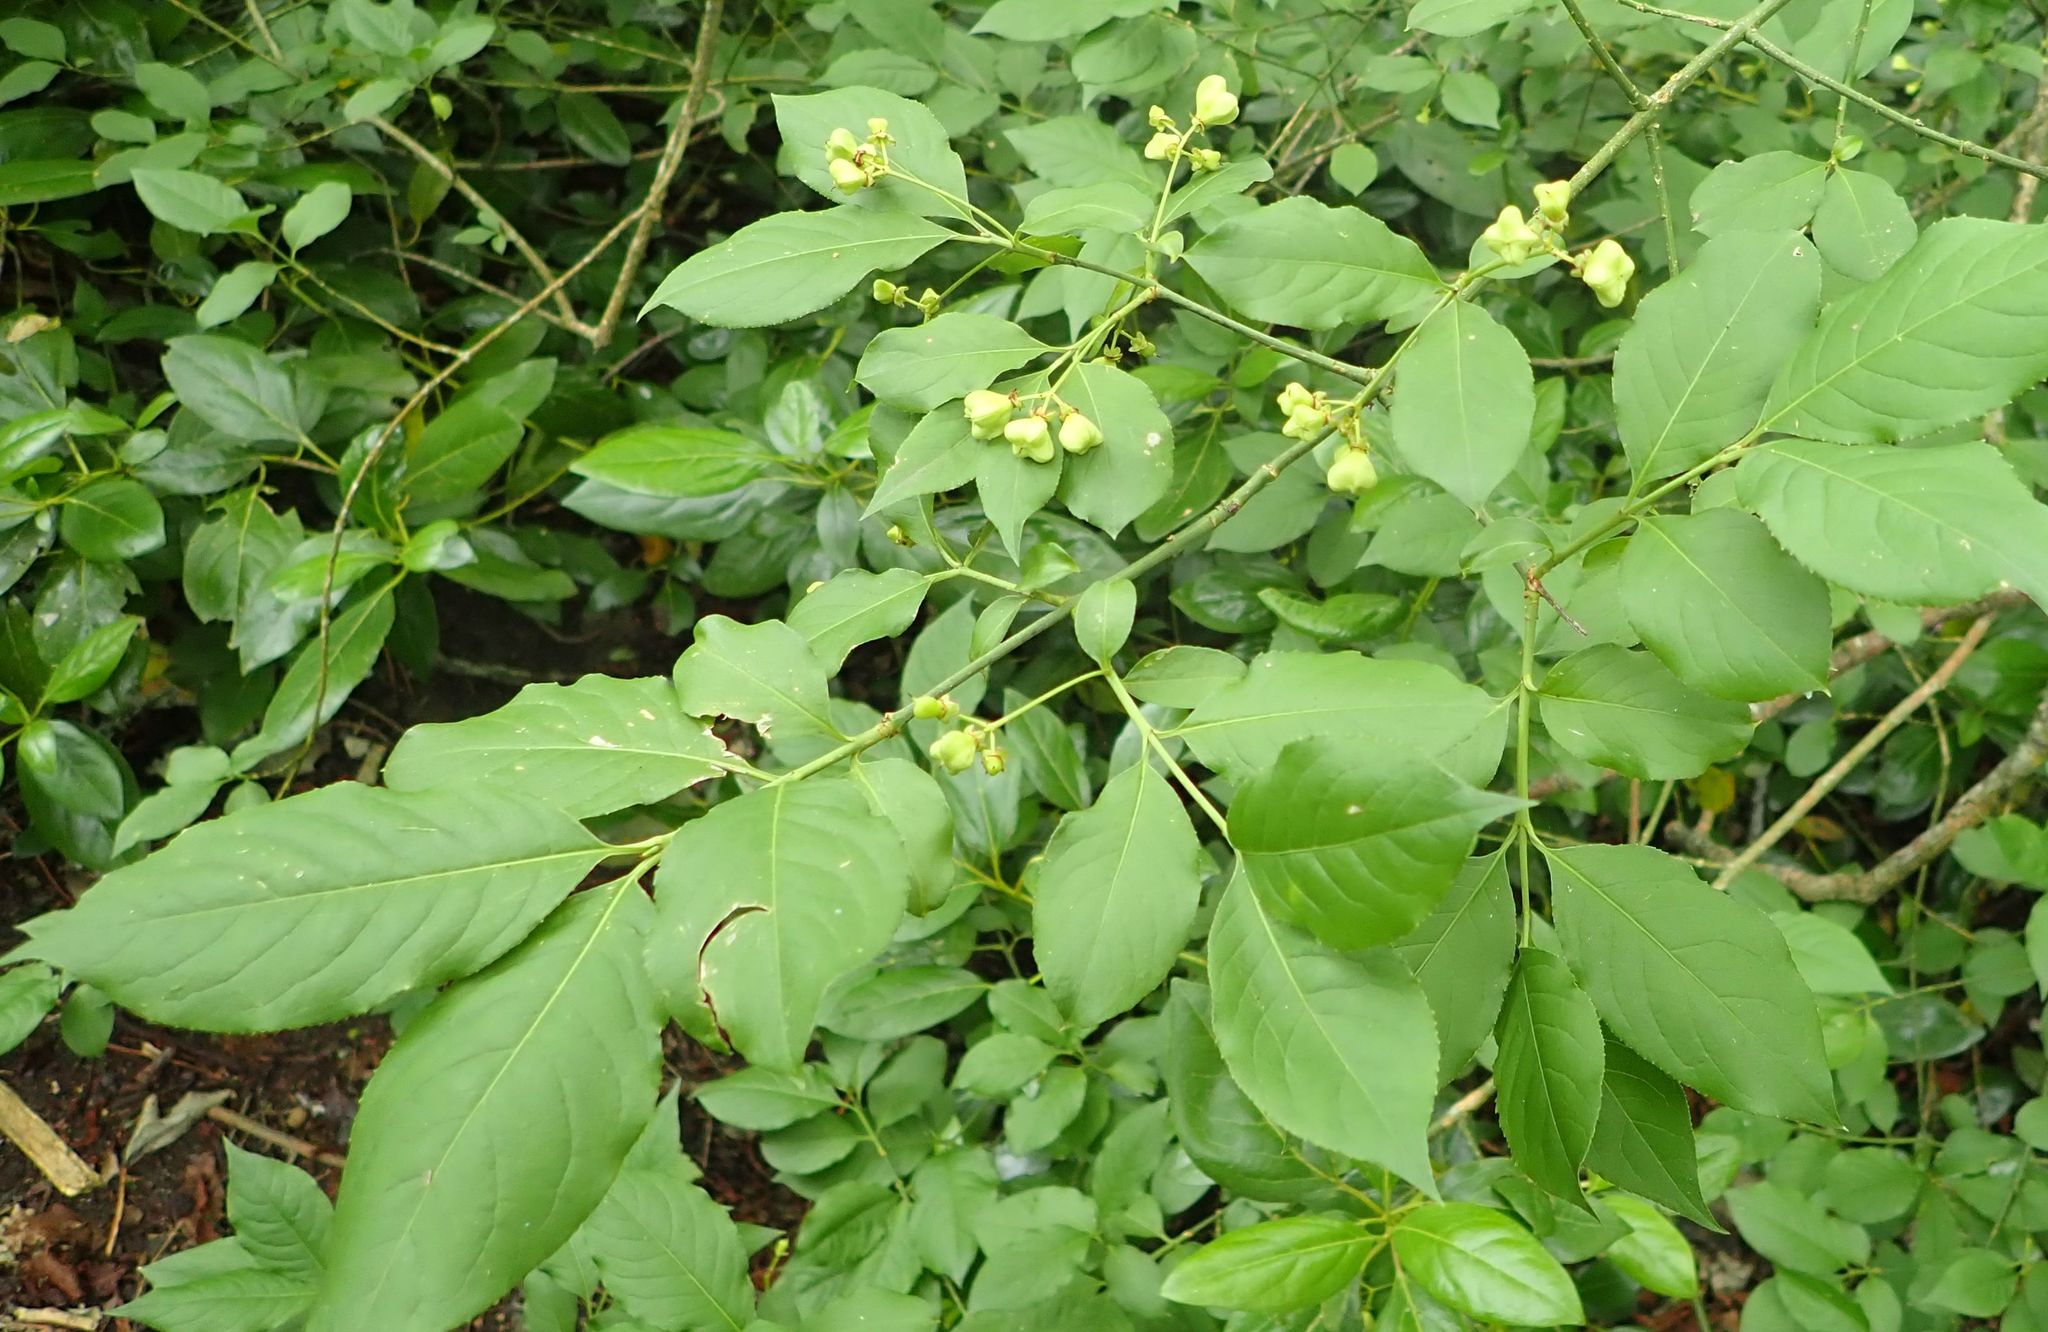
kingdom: Plantae
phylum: Tracheophyta
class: Magnoliopsida
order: Celastrales
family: Celastraceae
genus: Euonymus
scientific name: Euonymus europaeus
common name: Spindle
